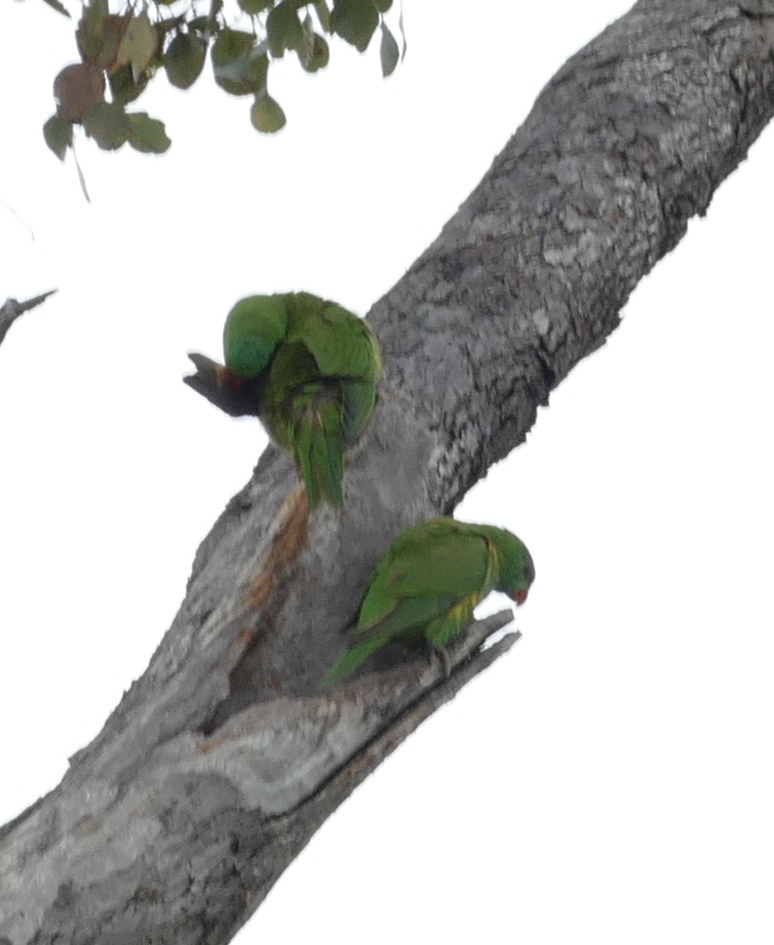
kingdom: Animalia
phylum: Chordata
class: Aves
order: Psittaciformes
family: Psittacidae
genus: Trichoglossus
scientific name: Trichoglossus chlorolepidotus
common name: Scaly-breasted lorikeet
